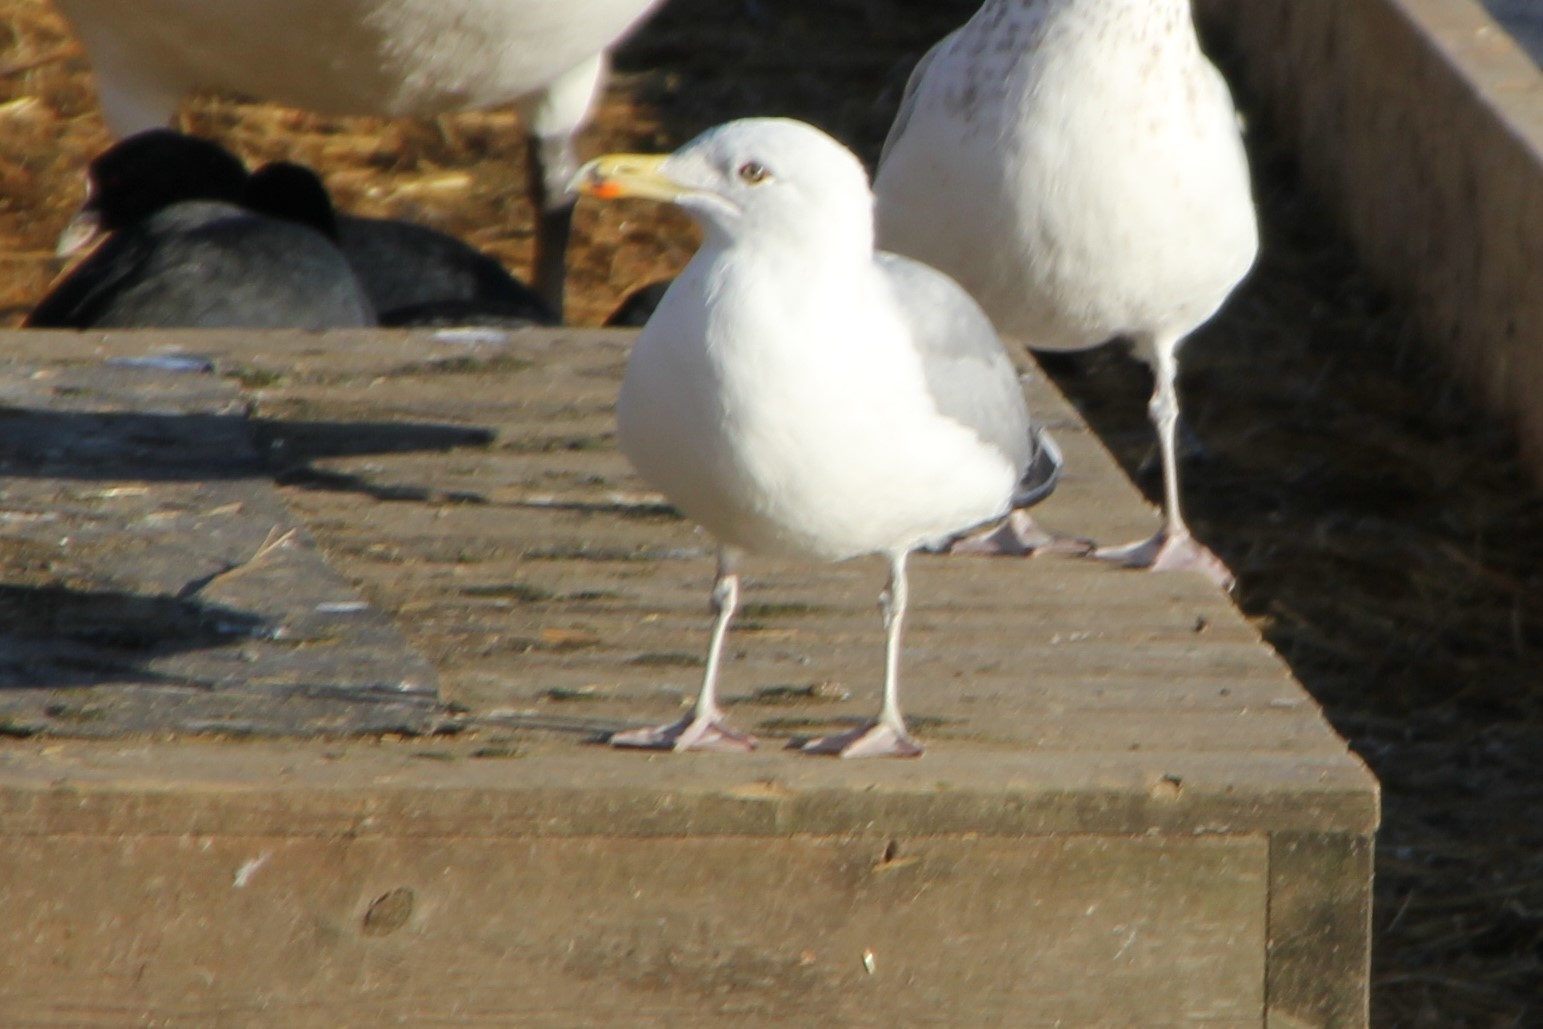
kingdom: Animalia
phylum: Chordata
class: Aves
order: Charadriiformes
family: Laridae
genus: Larus
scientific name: Larus argentatus
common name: Herring gull
